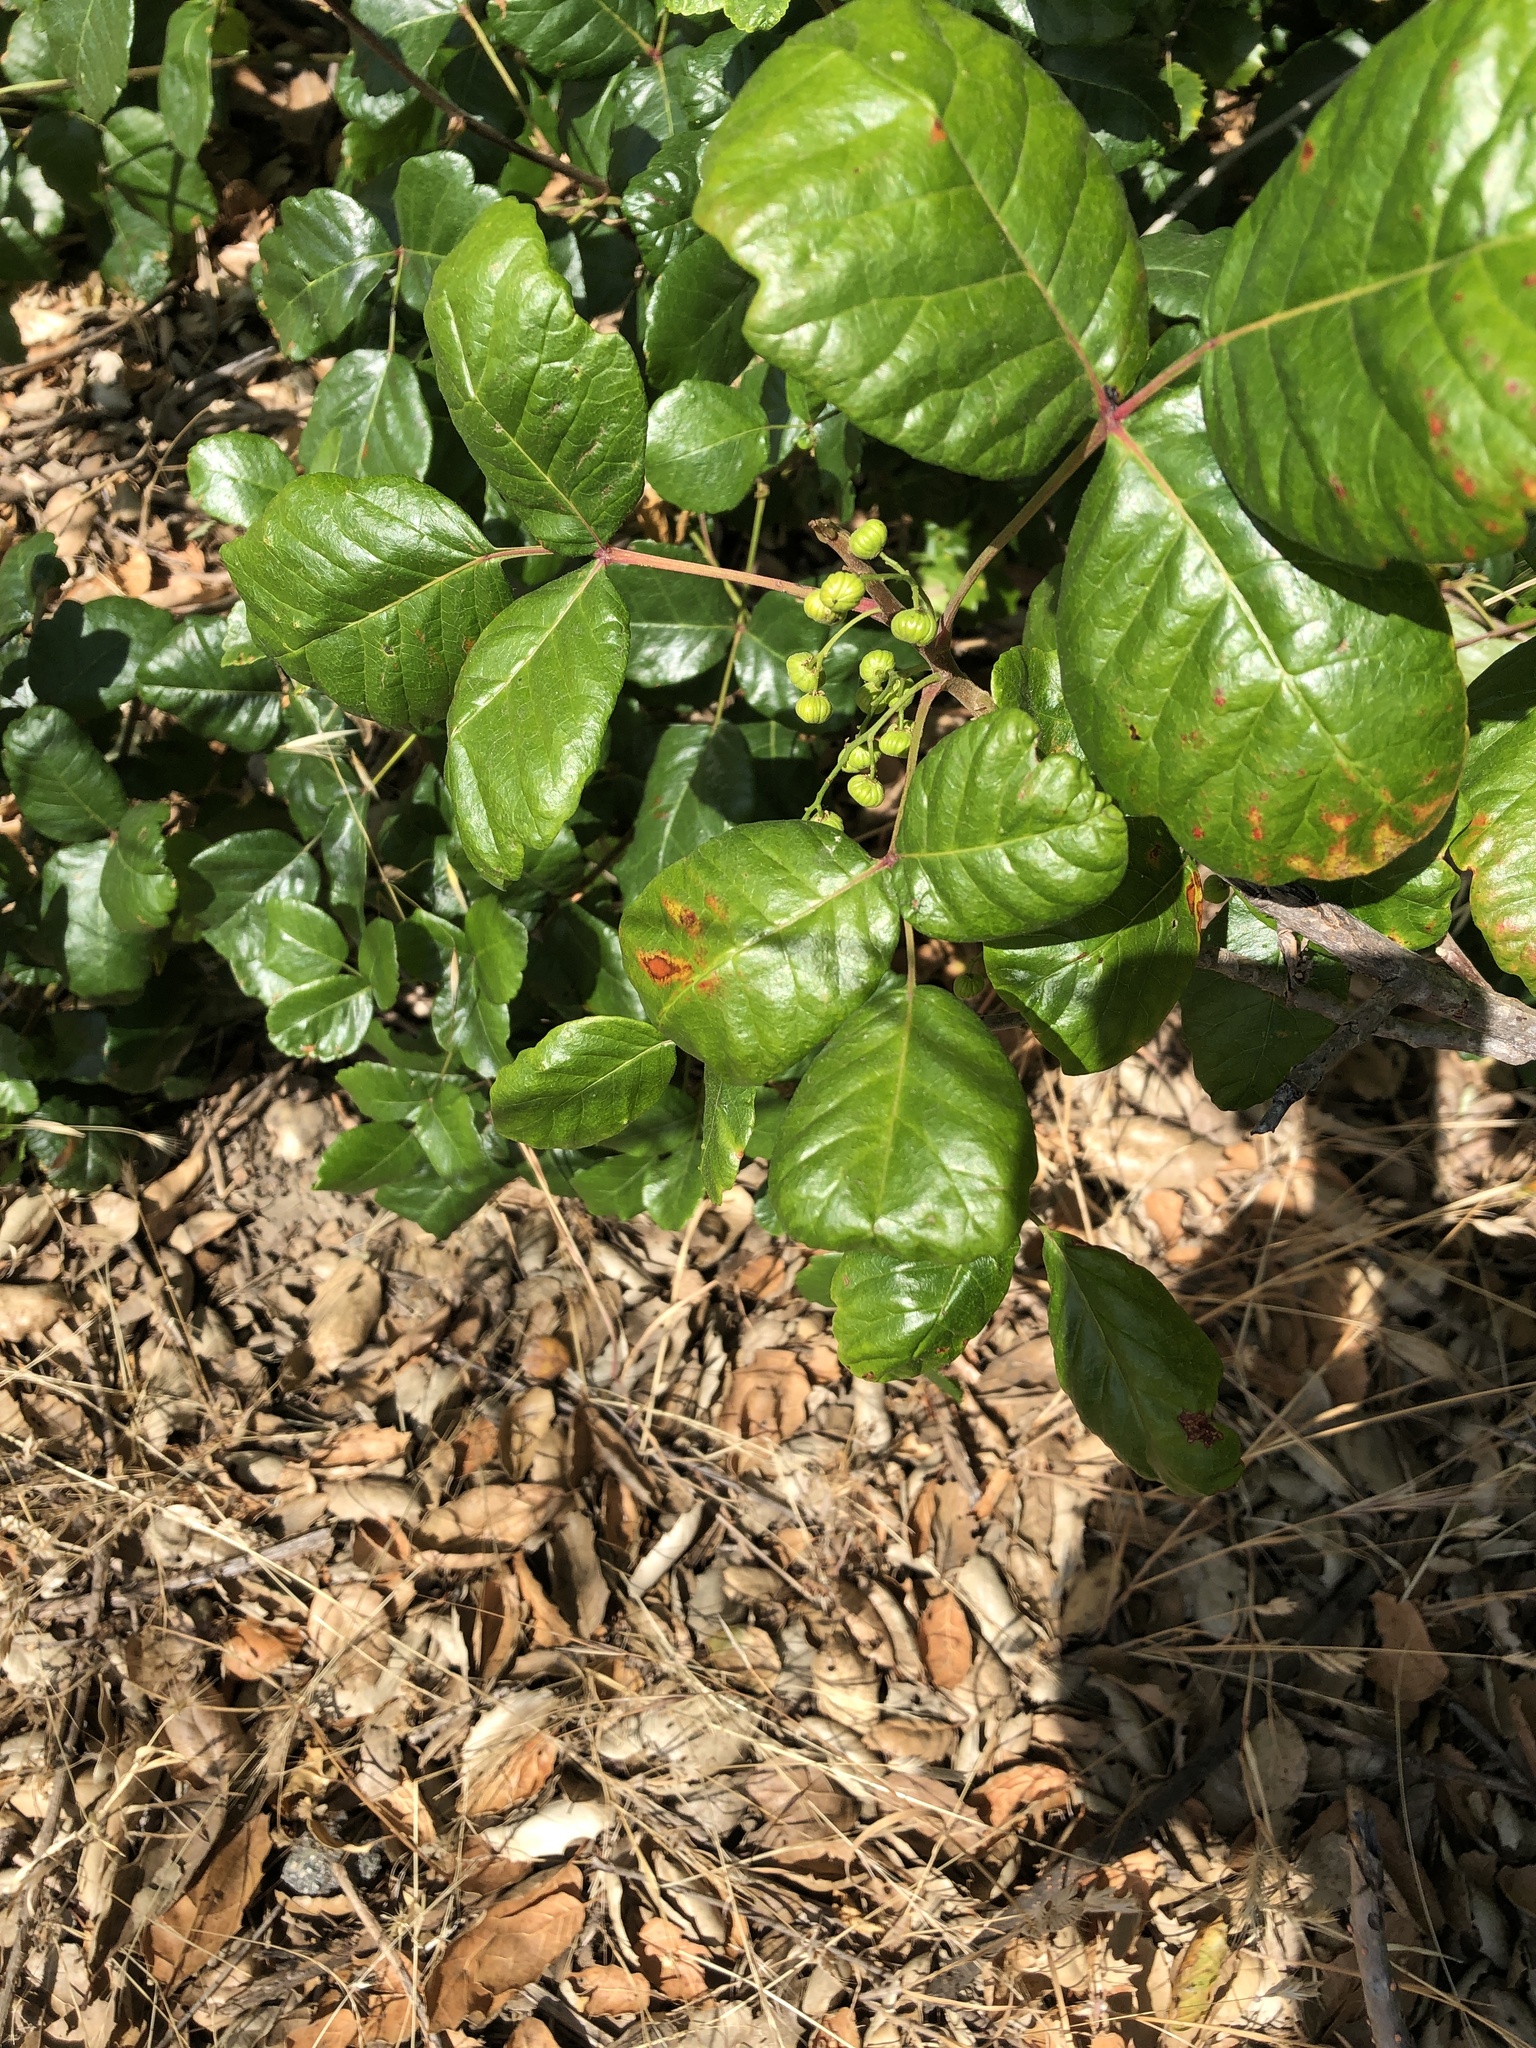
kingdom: Plantae
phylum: Tracheophyta
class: Magnoliopsida
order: Sapindales
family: Anacardiaceae
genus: Toxicodendron
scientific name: Toxicodendron diversilobum
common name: Pacific poison-oak
